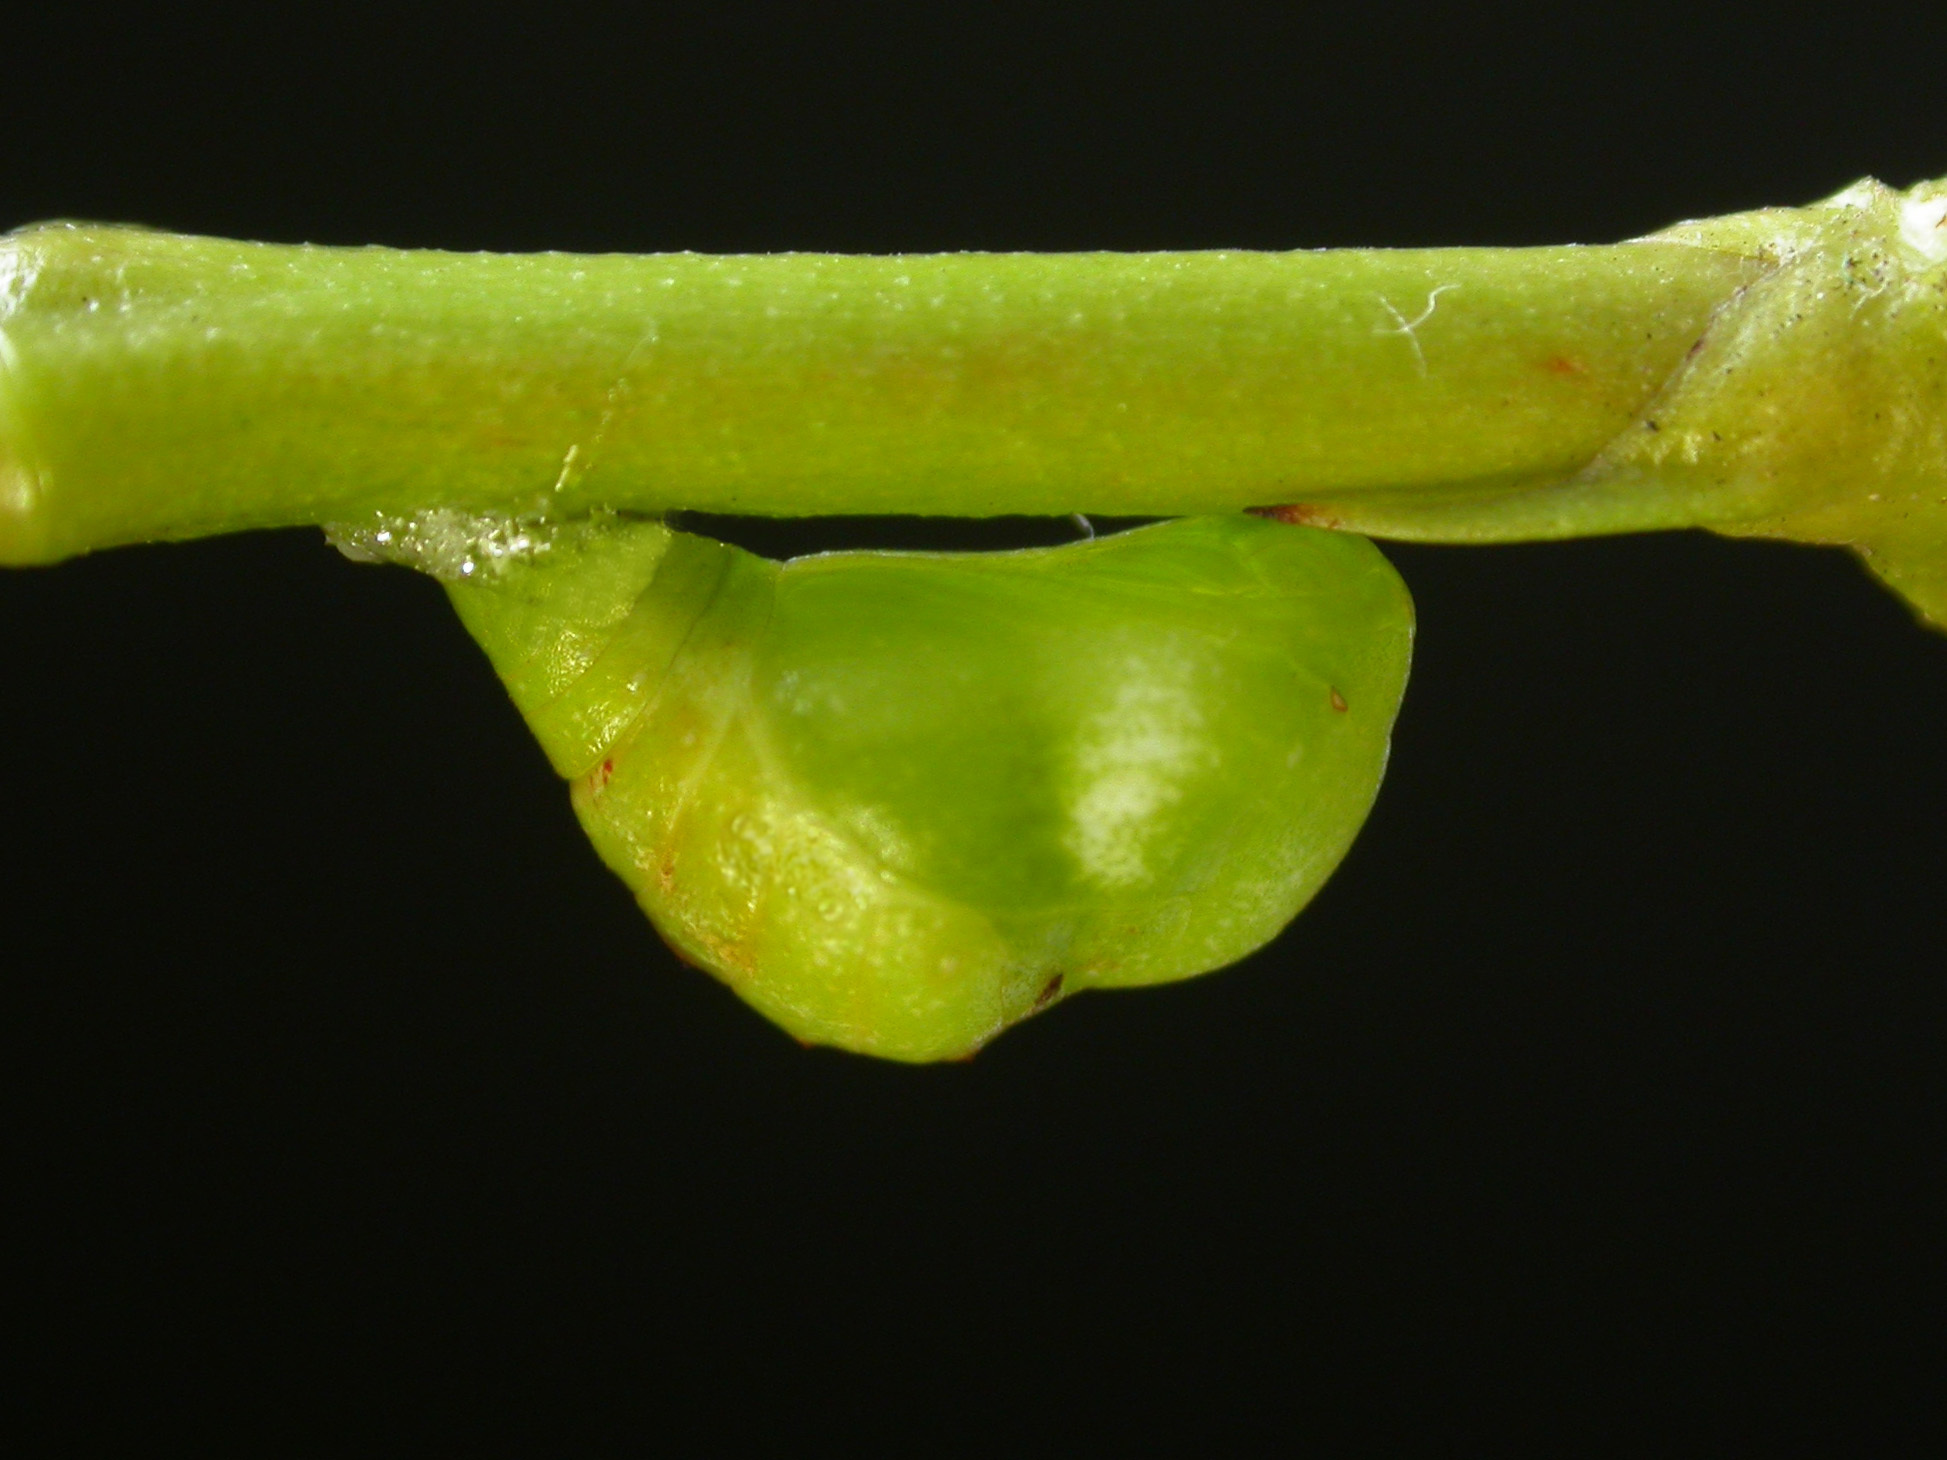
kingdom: Animalia
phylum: Arthropoda
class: Insecta
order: Lepidoptera
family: Lycaenidae
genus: Horaga
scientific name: Horaga syrinx
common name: Ambon onyx
